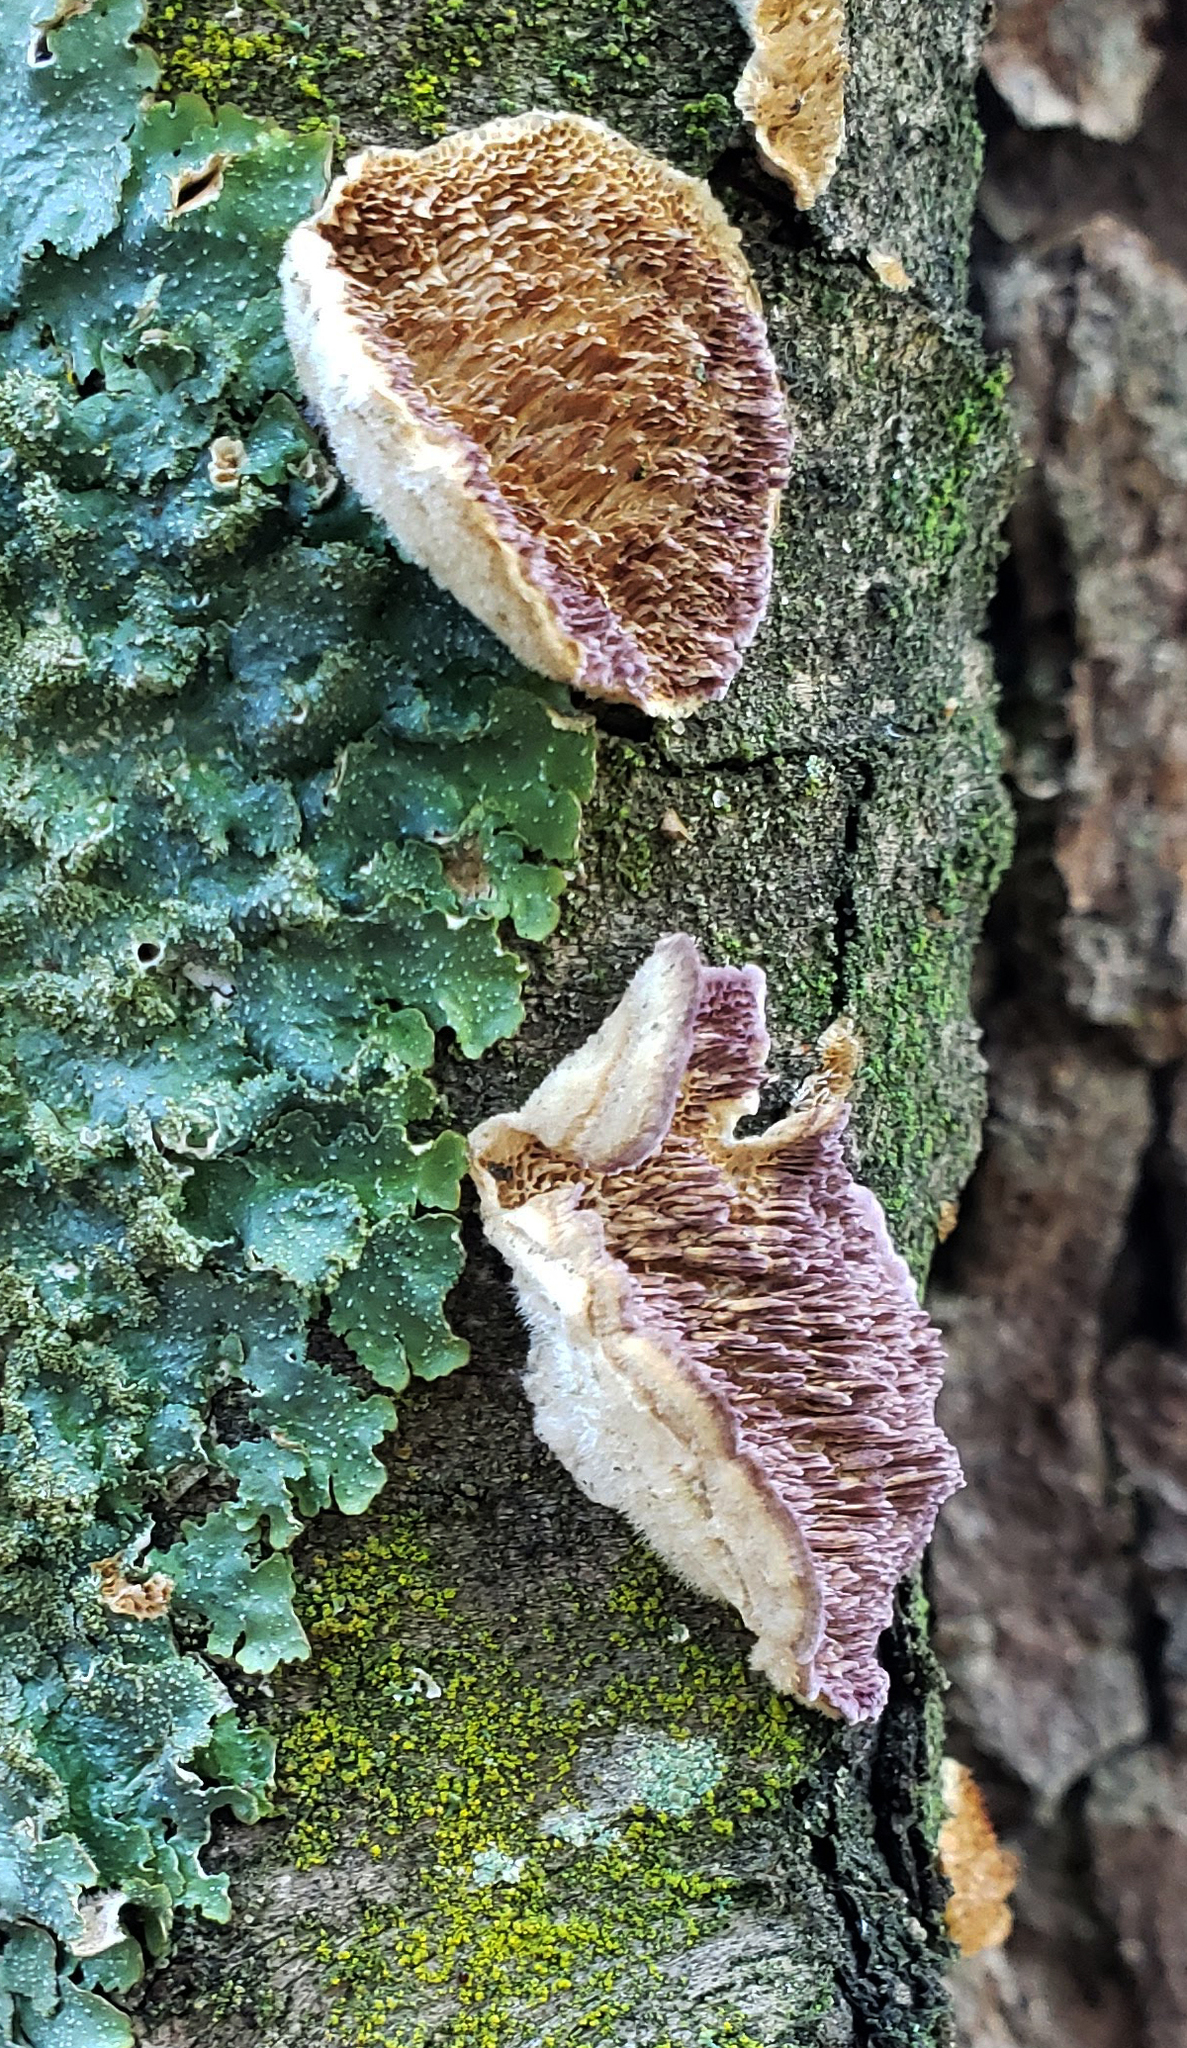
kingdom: Fungi
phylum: Basidiomycota
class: Agaricomycetes
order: Hymenochaetales
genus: Trichaptum
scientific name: Trichaptum biforme
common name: Violet-toothed polypore
